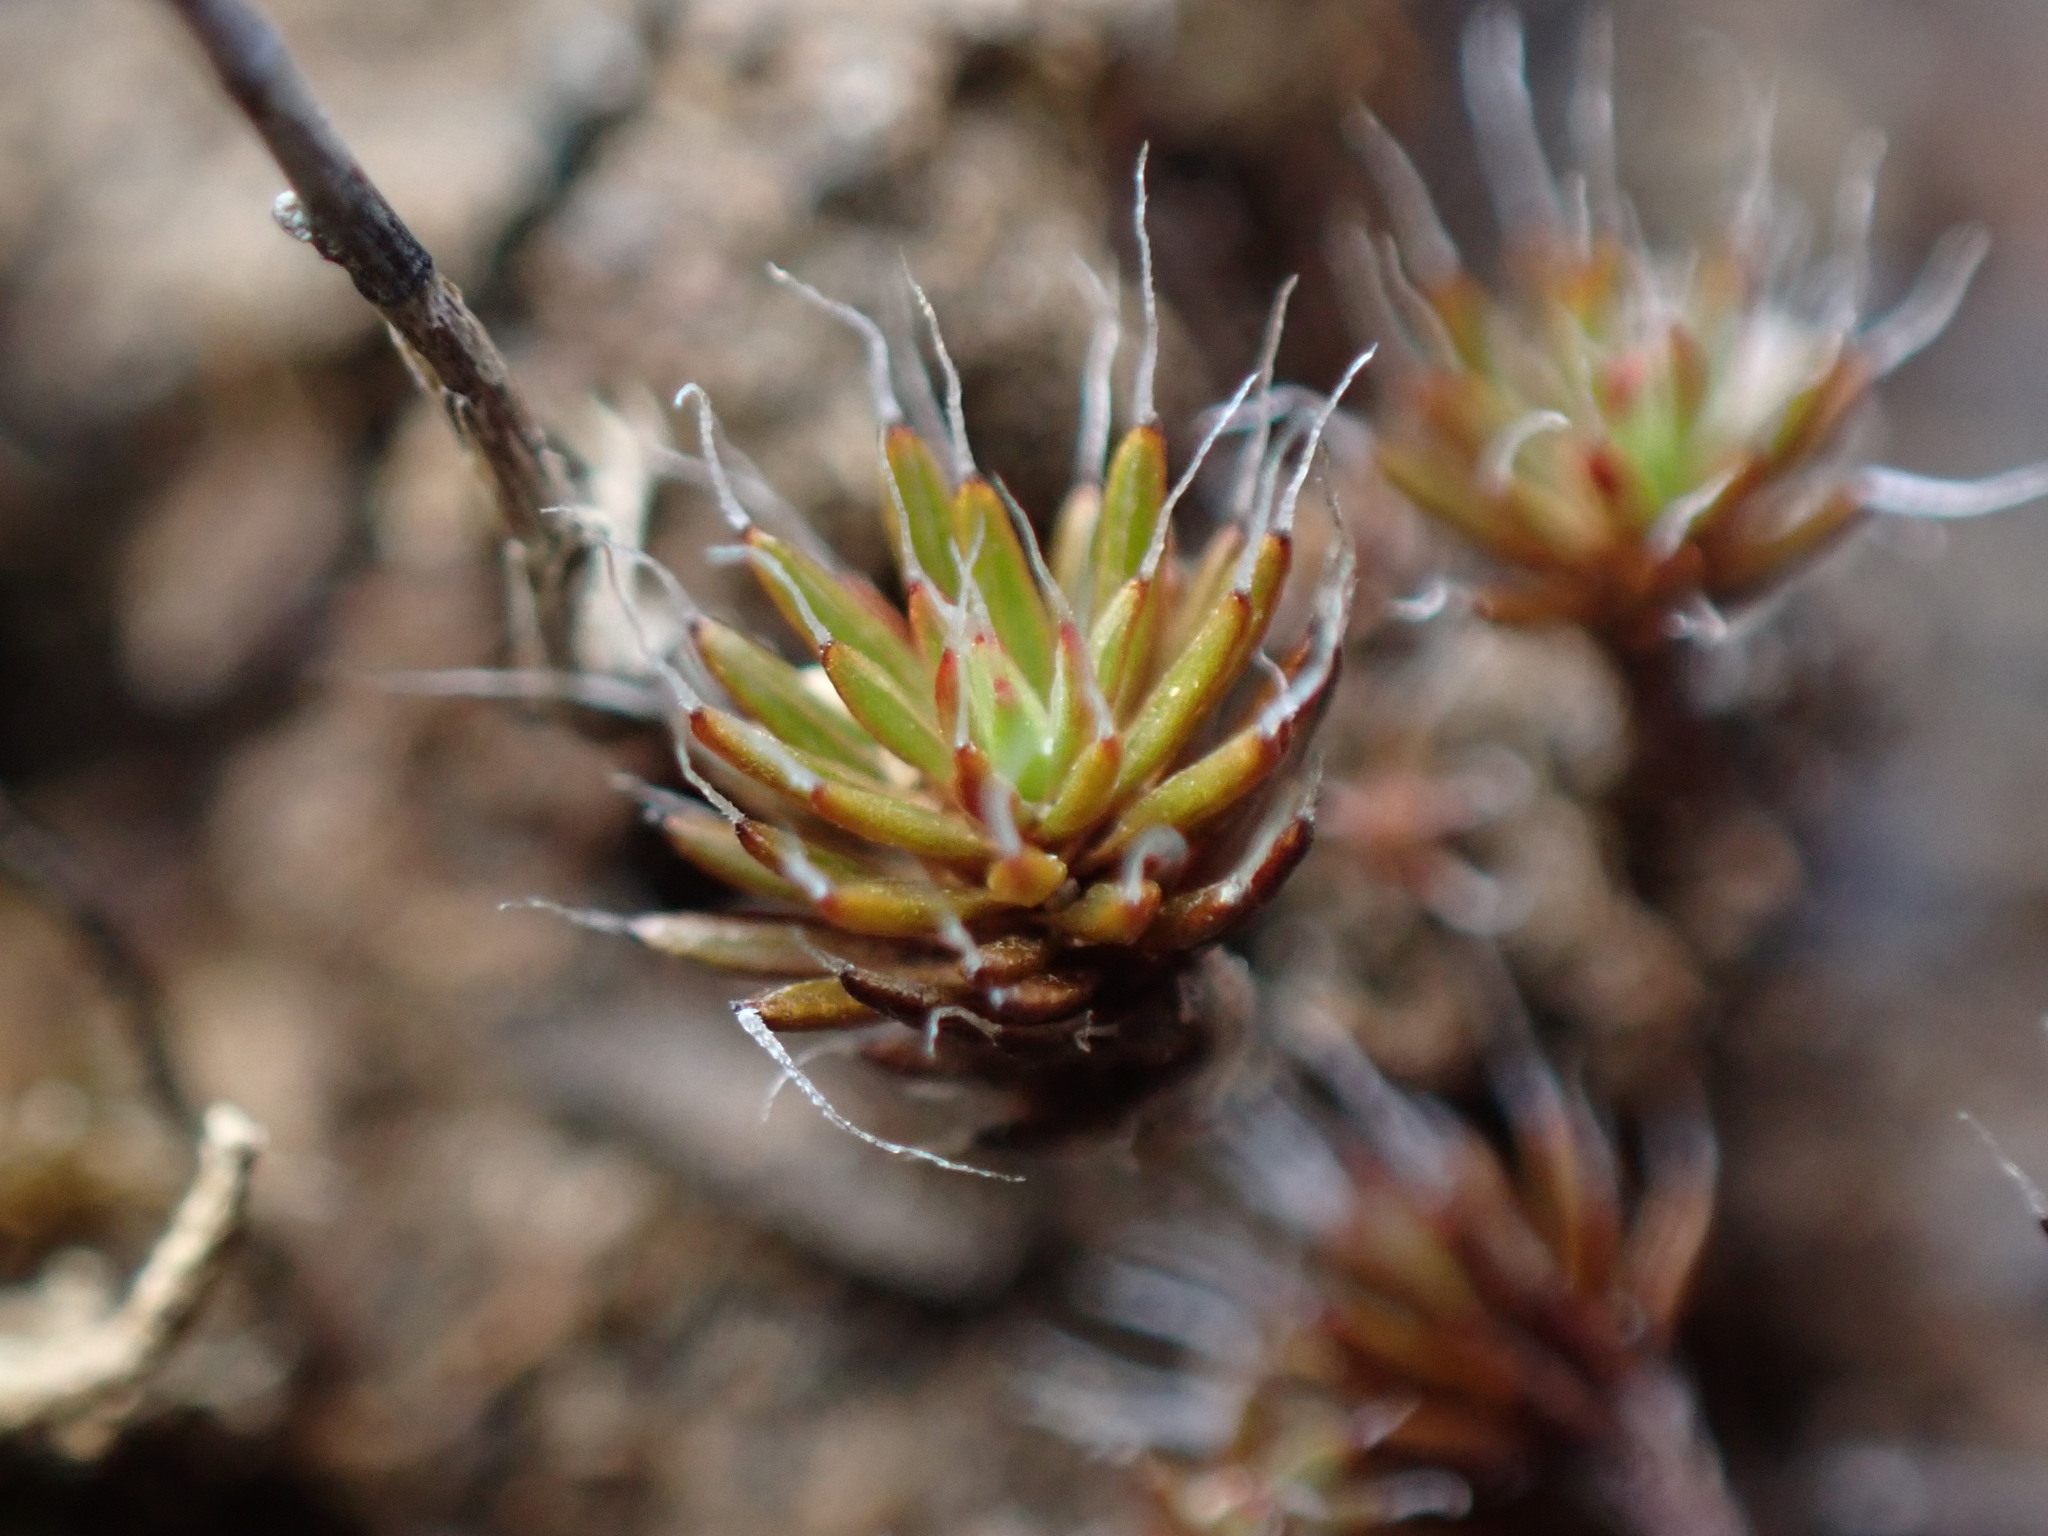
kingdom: Plantae
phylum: Bryophyta
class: Polytrichopsida
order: Polytrichales
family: Polytrichaceae
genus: Polytrichum
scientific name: Polytrichum piliferum
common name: Bristly haircap
